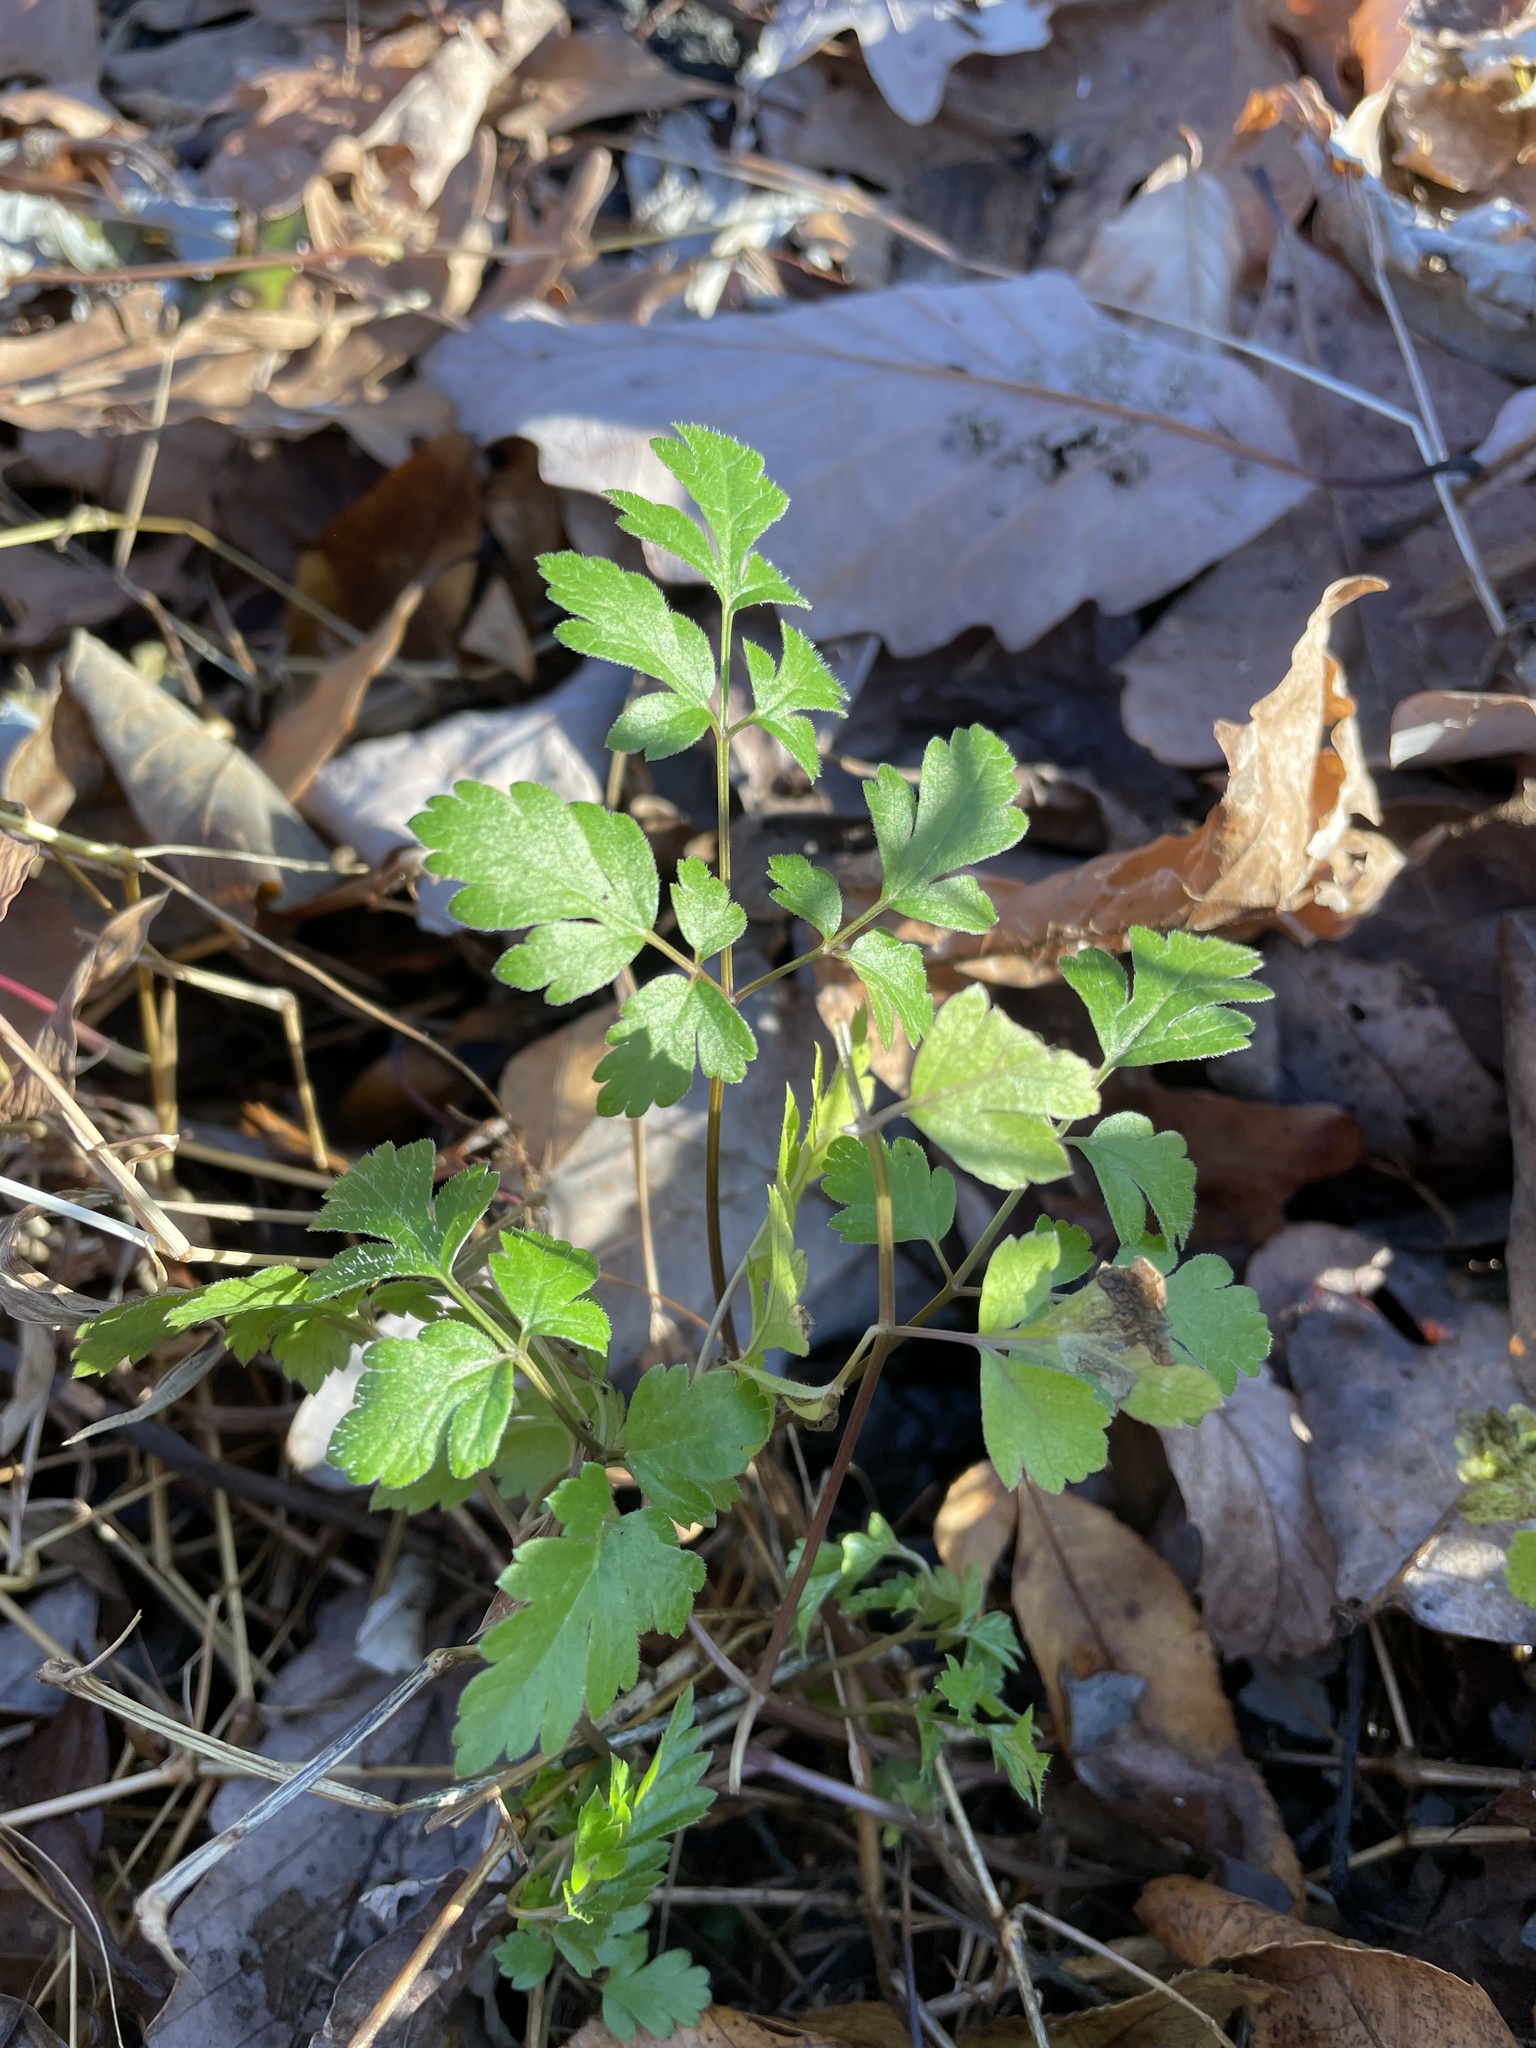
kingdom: Plantae
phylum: Tracheophyta
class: Magnoliopsida
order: Apiales
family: Apiaceae
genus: Osmorhiza
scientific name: Osmorhiza claytonii
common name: Hairy sweet cicely
